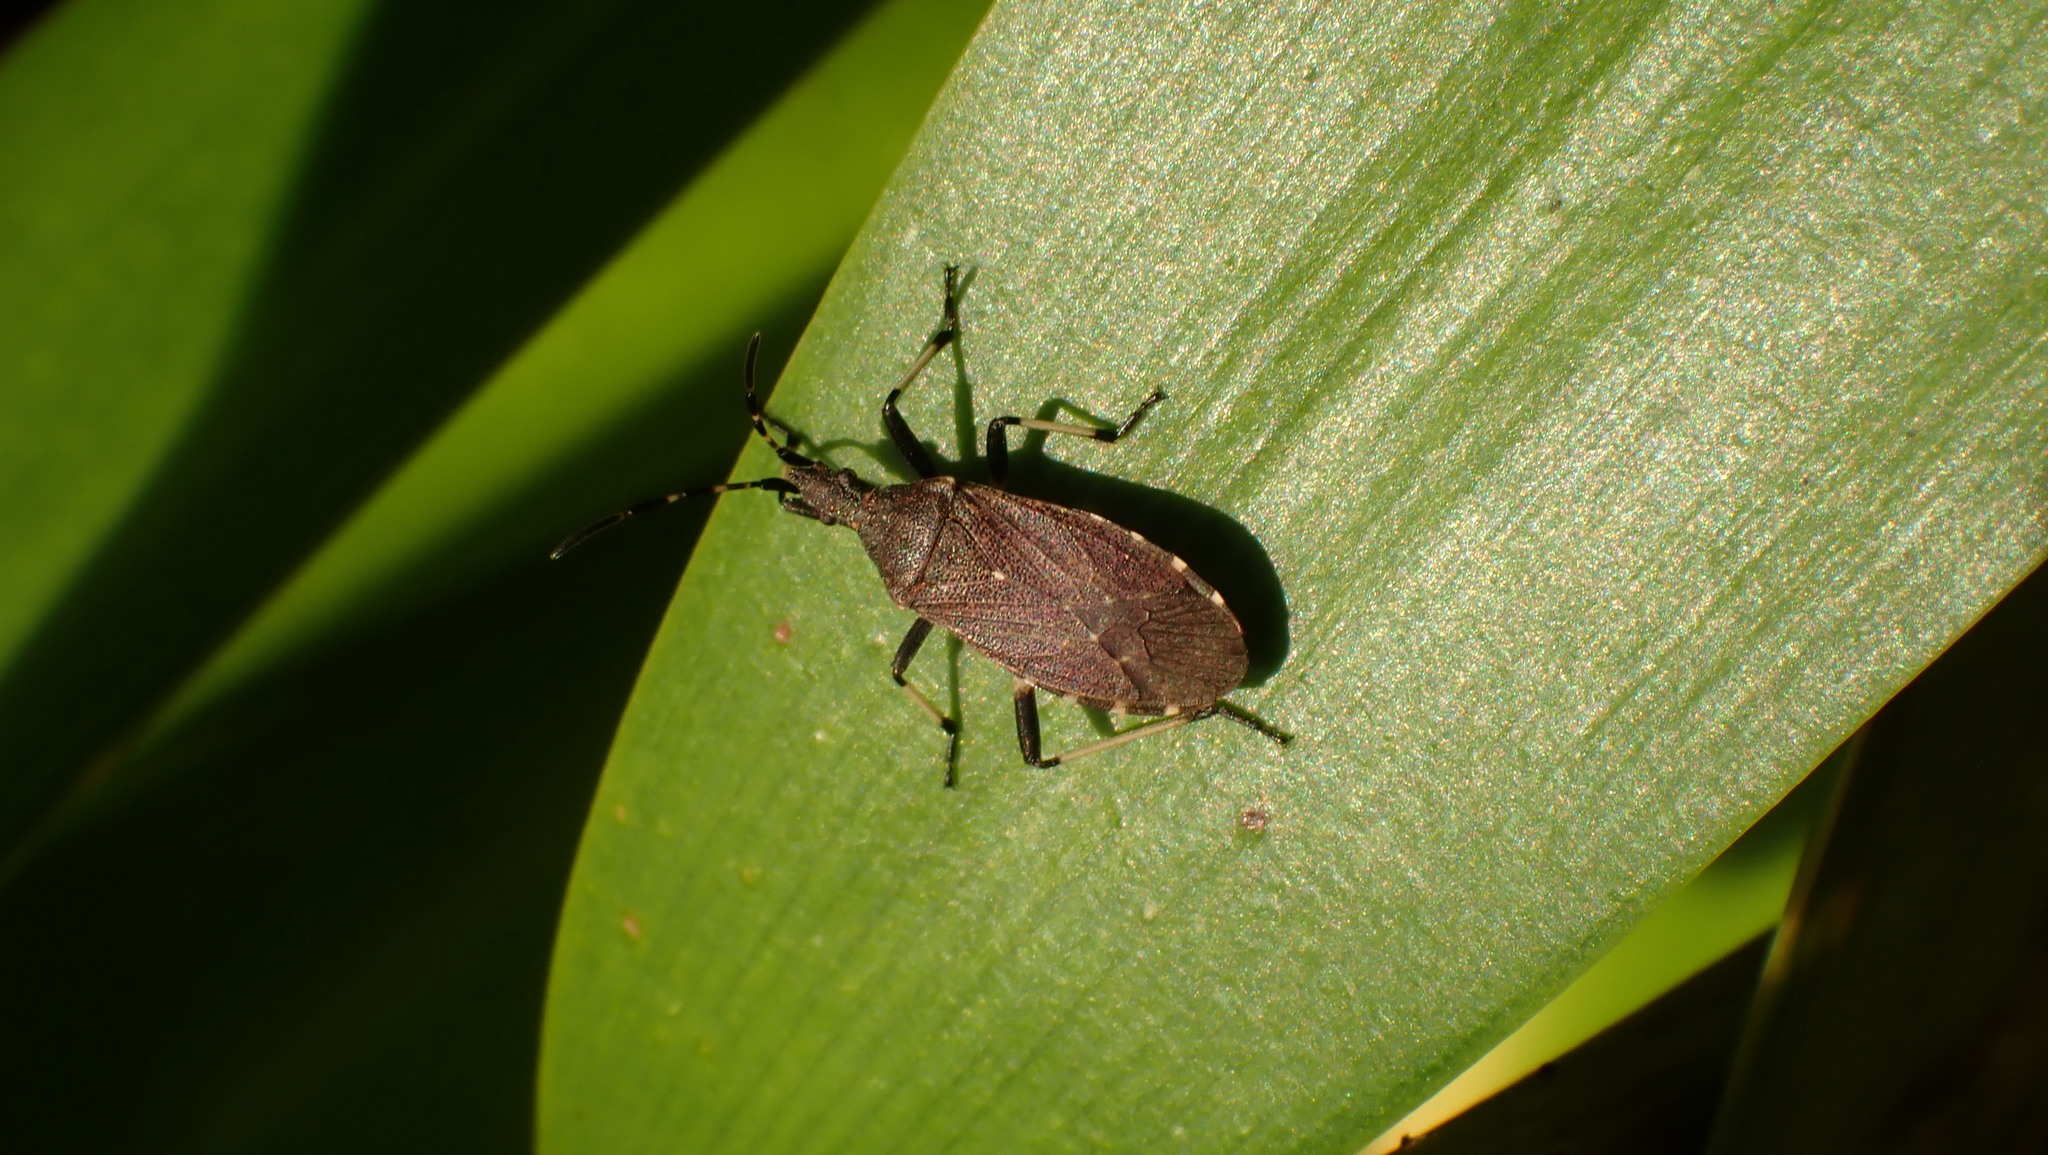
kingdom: Animalia
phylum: Arthropoda
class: Insecta
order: Hemiptera
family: Stenocephalidae
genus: Dicranocephalus
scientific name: Dicranocephalus medius
